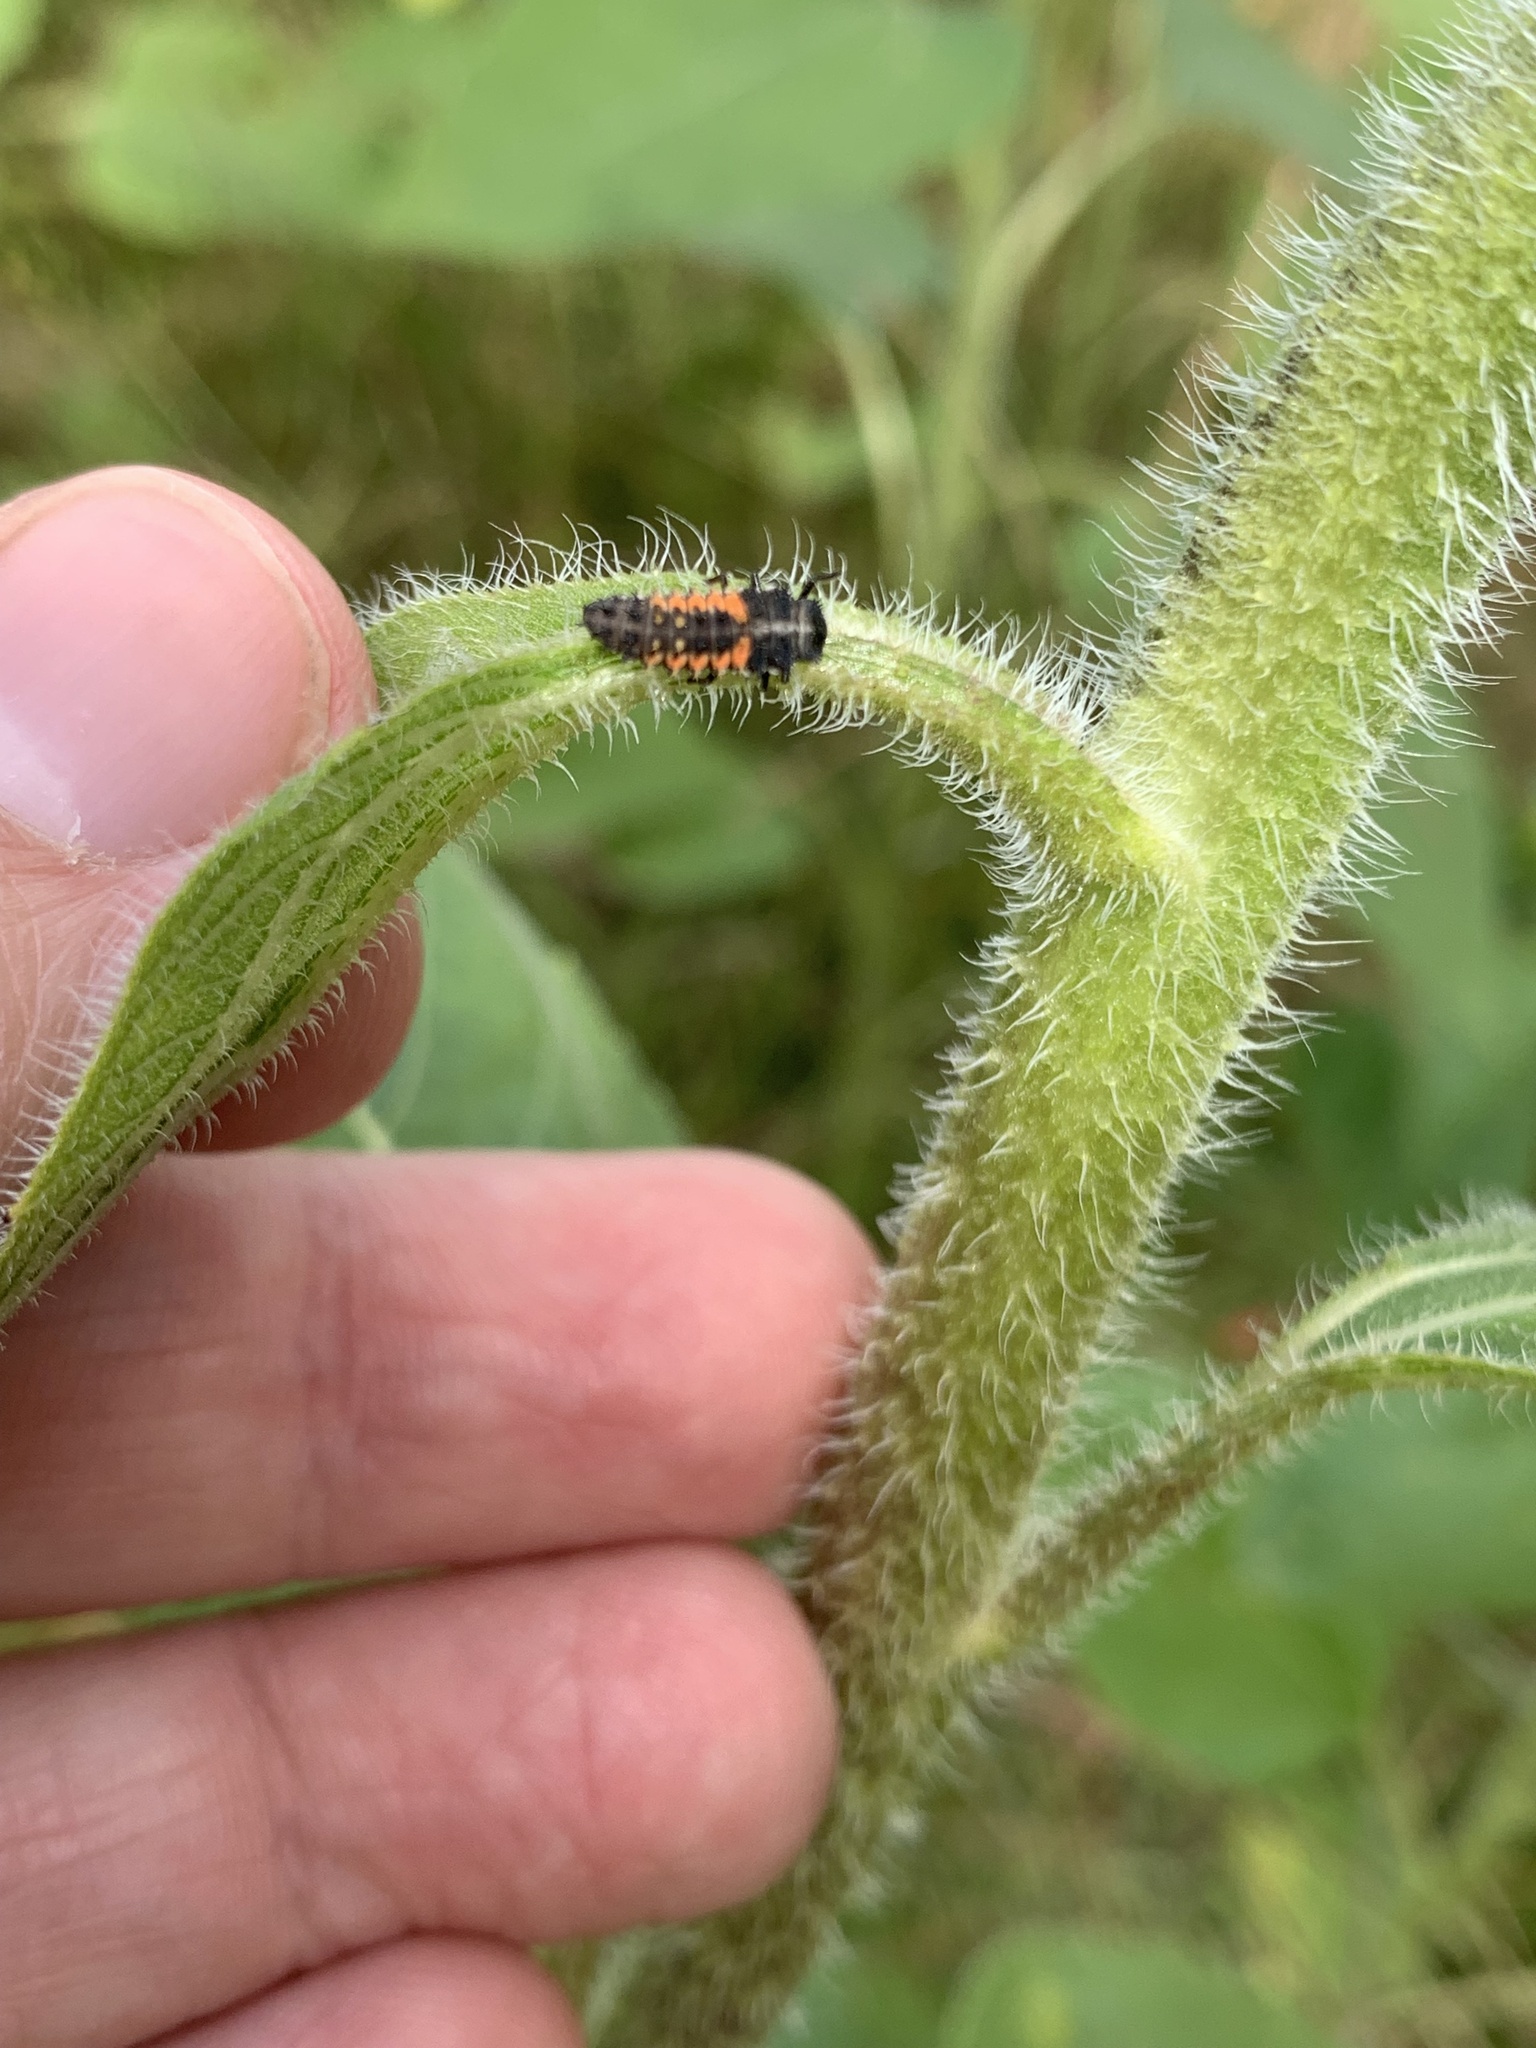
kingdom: Animalia
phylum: Arthropoda
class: Insecta
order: Coleoptera
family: Coccinellidae
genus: Harmonia
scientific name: Harmonia axyridis
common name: Harlequin ladybird
